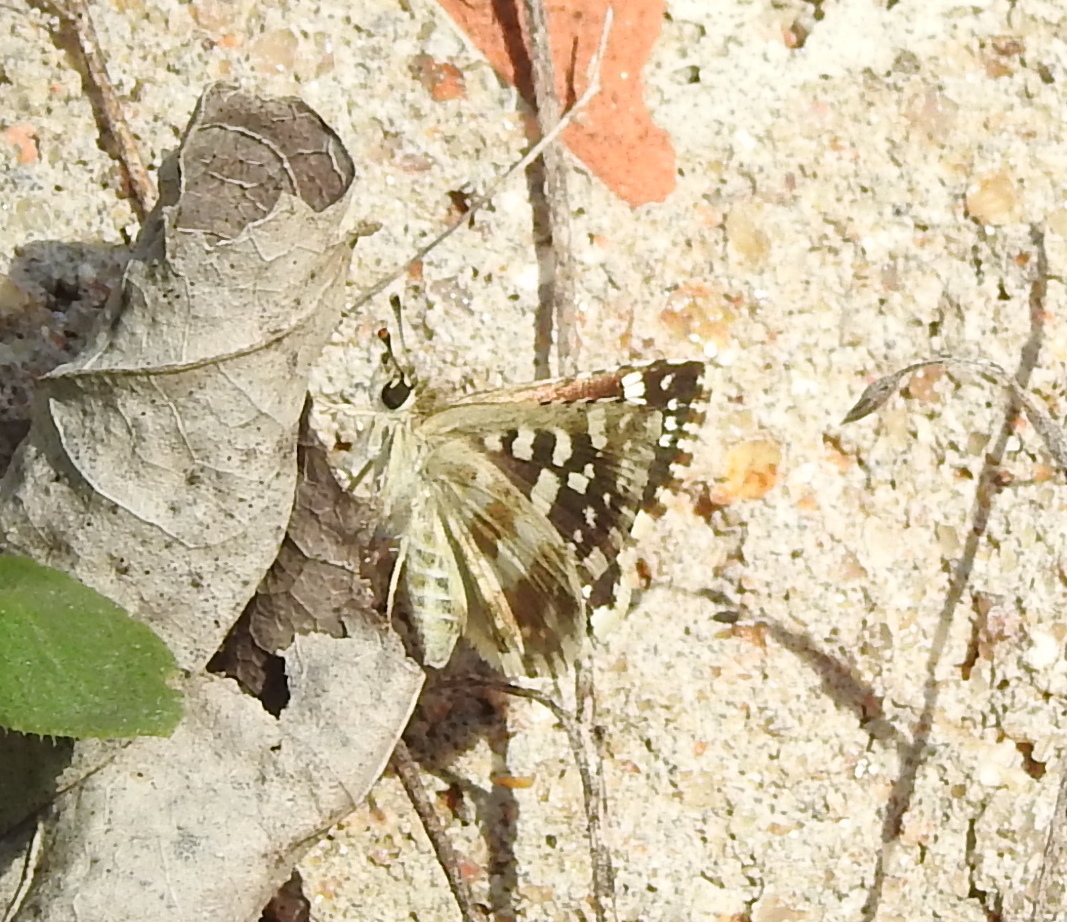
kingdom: Animalia
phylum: Arthropoda
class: Insecta
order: Lepidoptera
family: Hesperiidae
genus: Spialia
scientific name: Spialia galba
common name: Indian skipper
